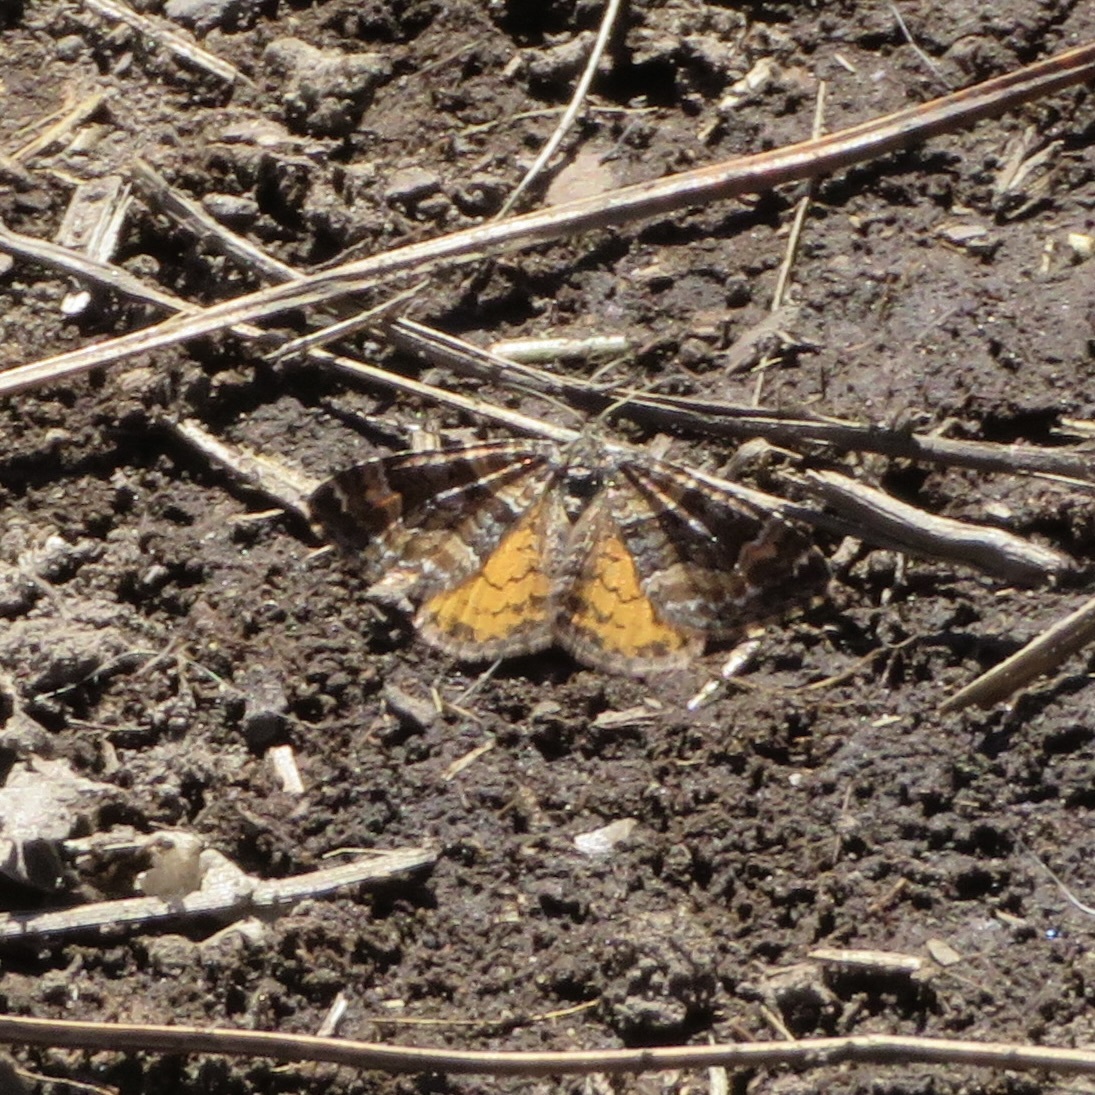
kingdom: Animalia
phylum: Arthropoda
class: Insecta
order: Lepidoptera
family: Geometridae
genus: Epirrhoe
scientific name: Epirrhoe plebeculata
